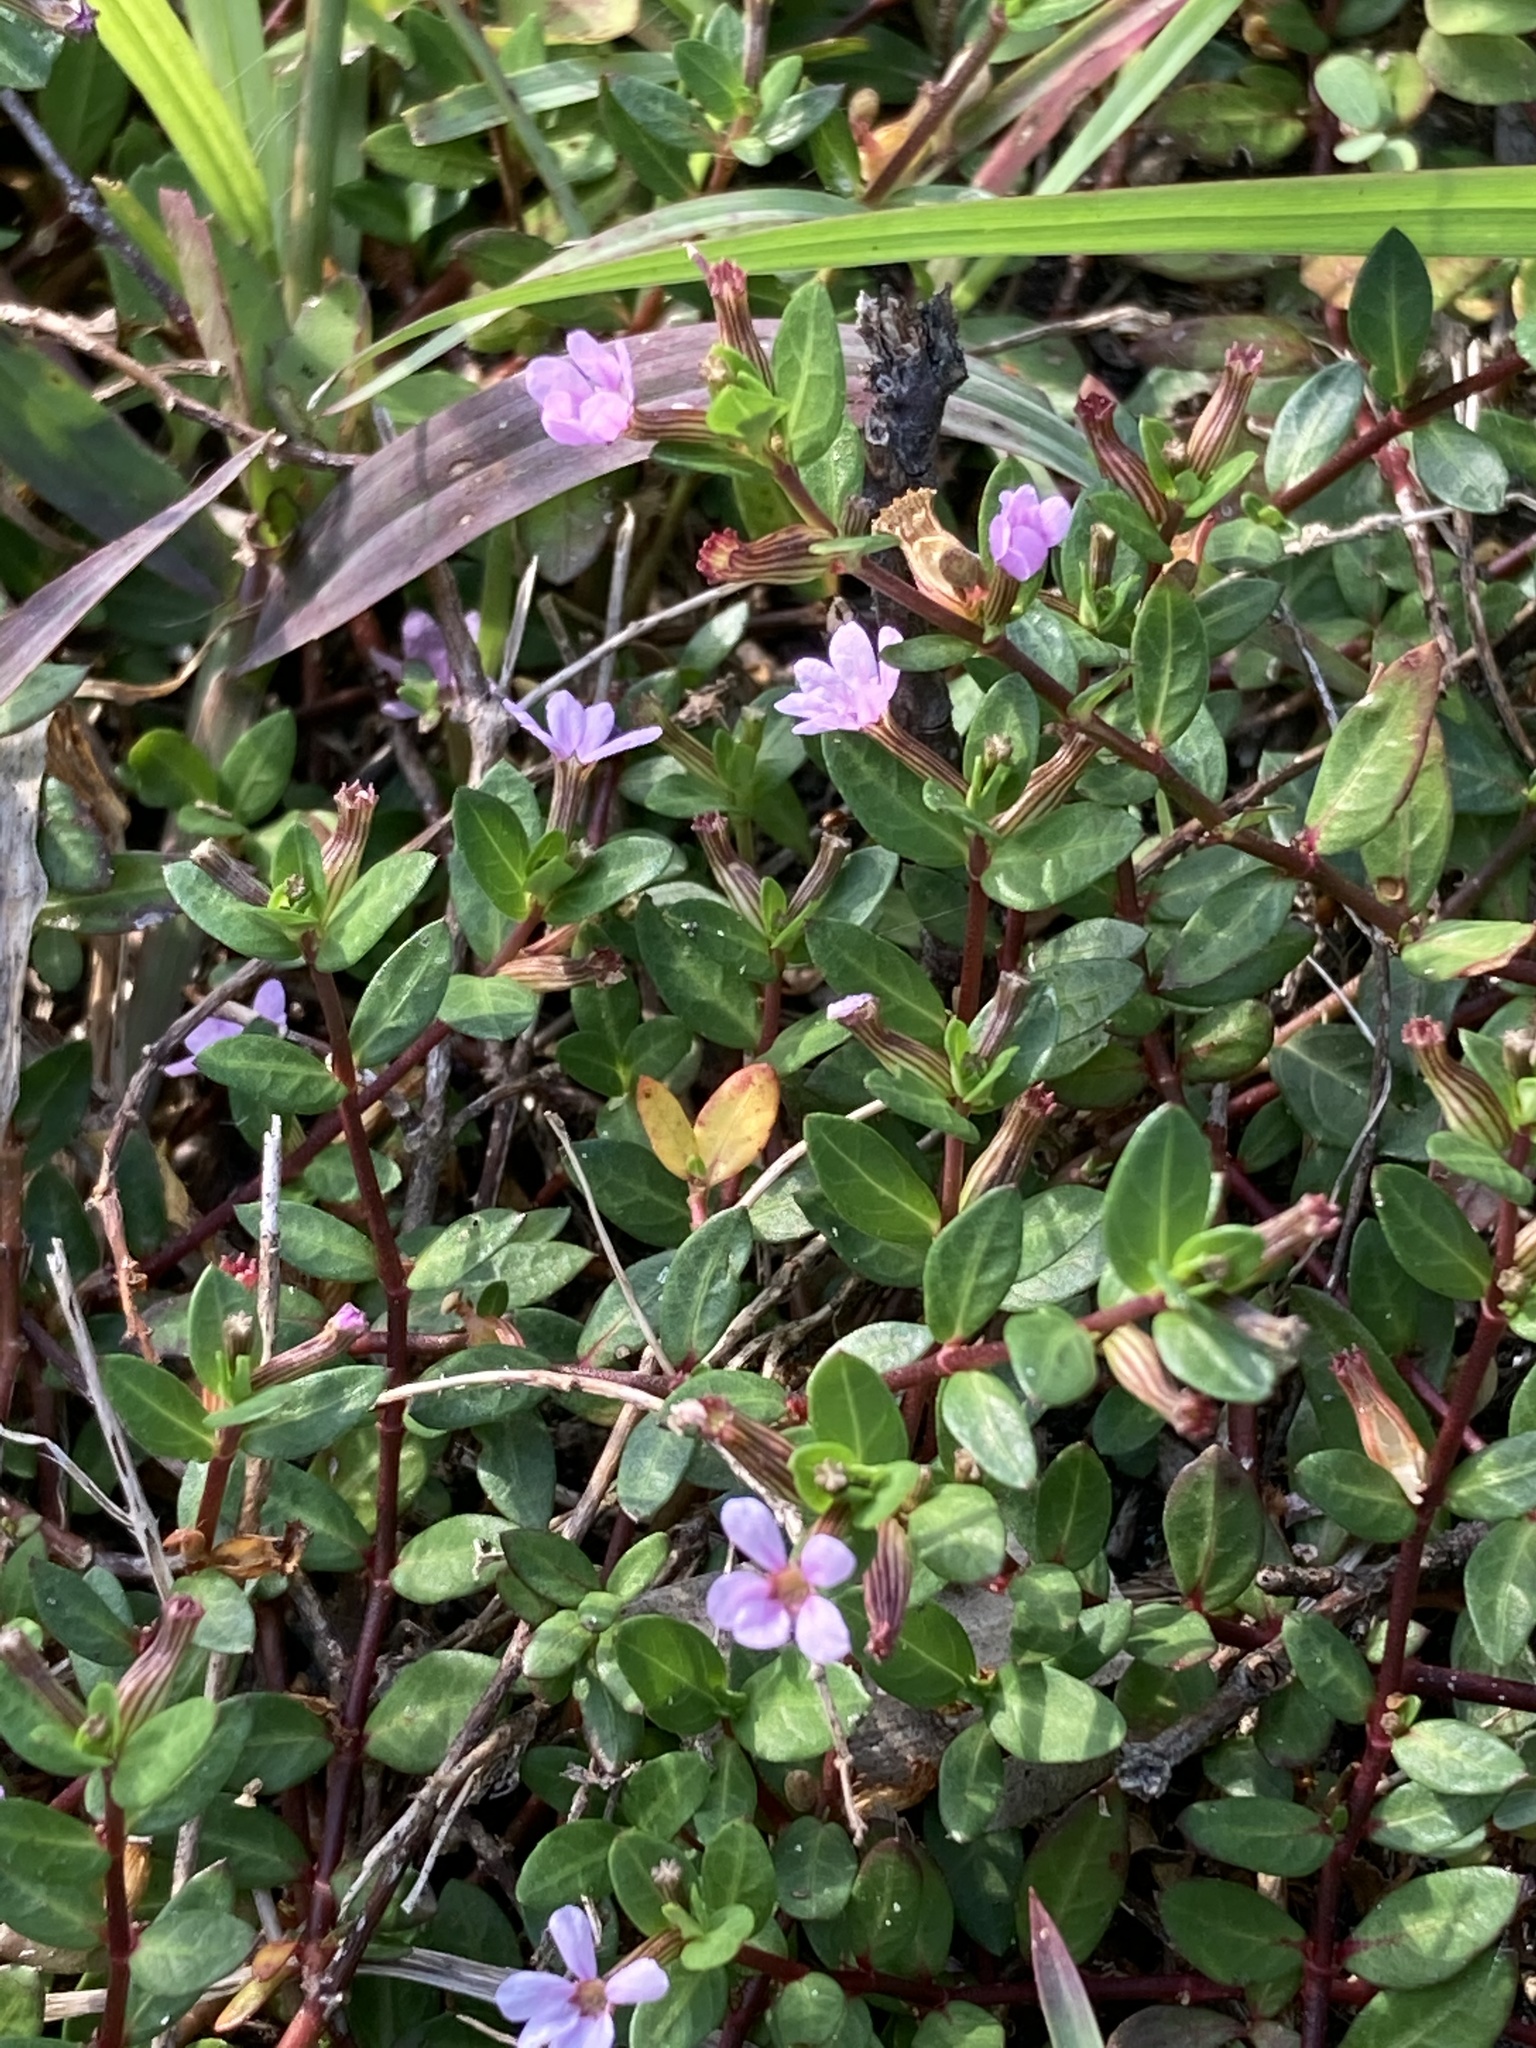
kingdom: Plantae
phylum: Tracheophyta
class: Magnoliopsida
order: Myrtales
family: Lythraceae
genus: Cuphea
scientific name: Cuphea strigulosa
